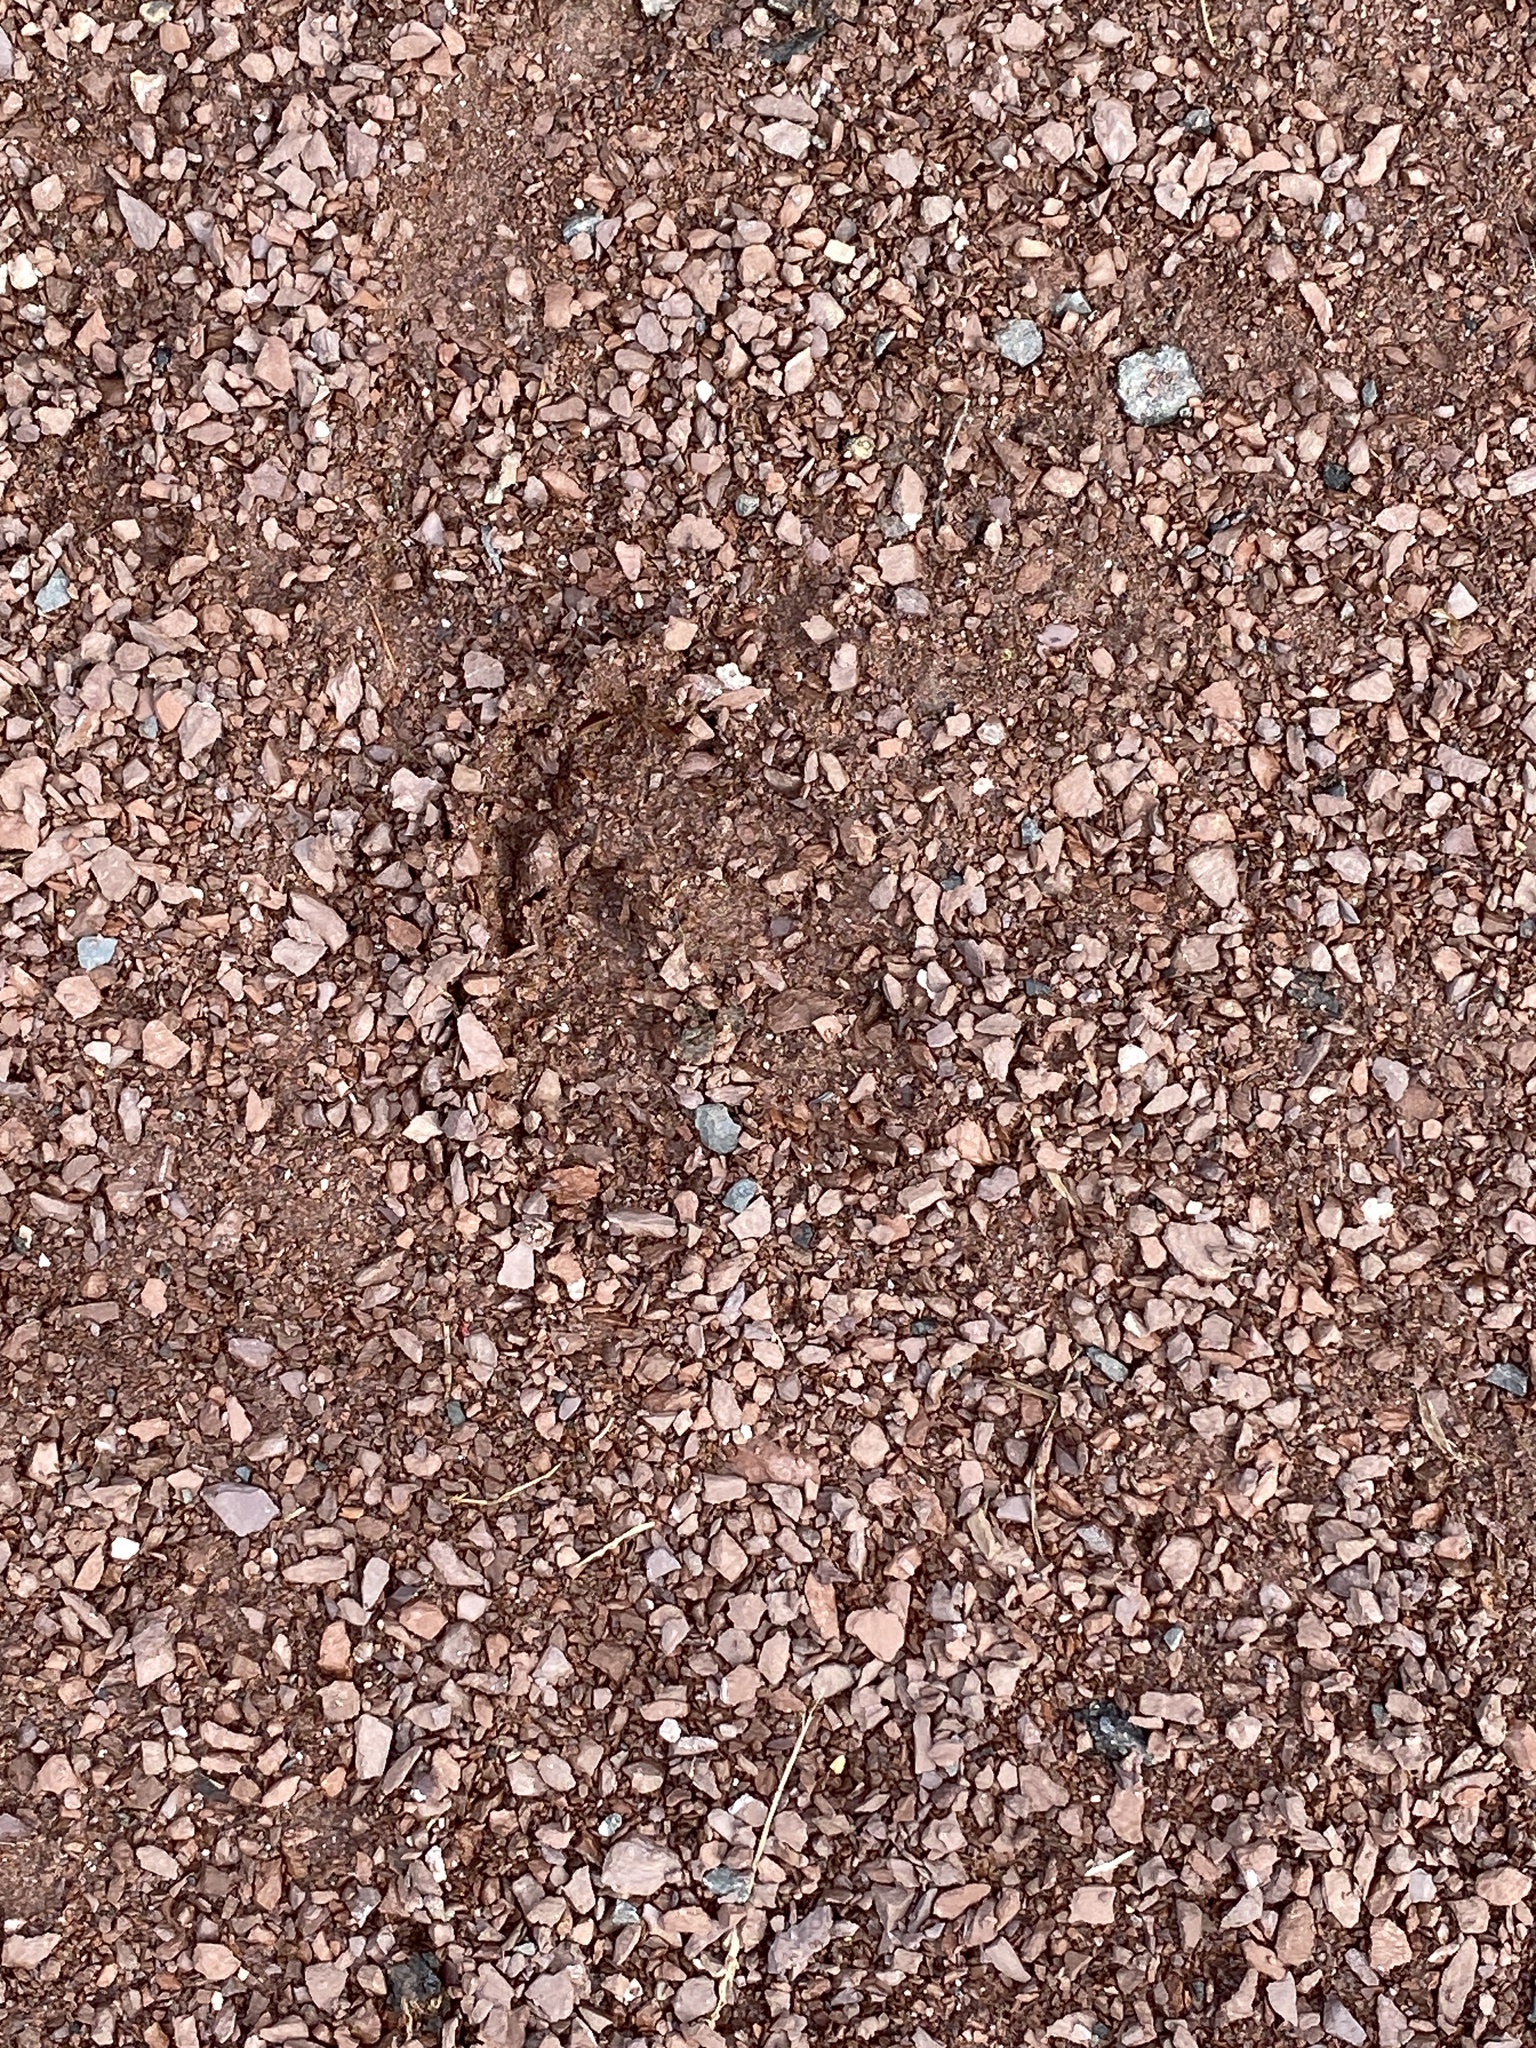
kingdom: Animalia
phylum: Chordata
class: Mammalia
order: Artiodactyla
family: Cervidae
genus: Odocoileus
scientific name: Odocoileus virginianus
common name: White-tailed deer
